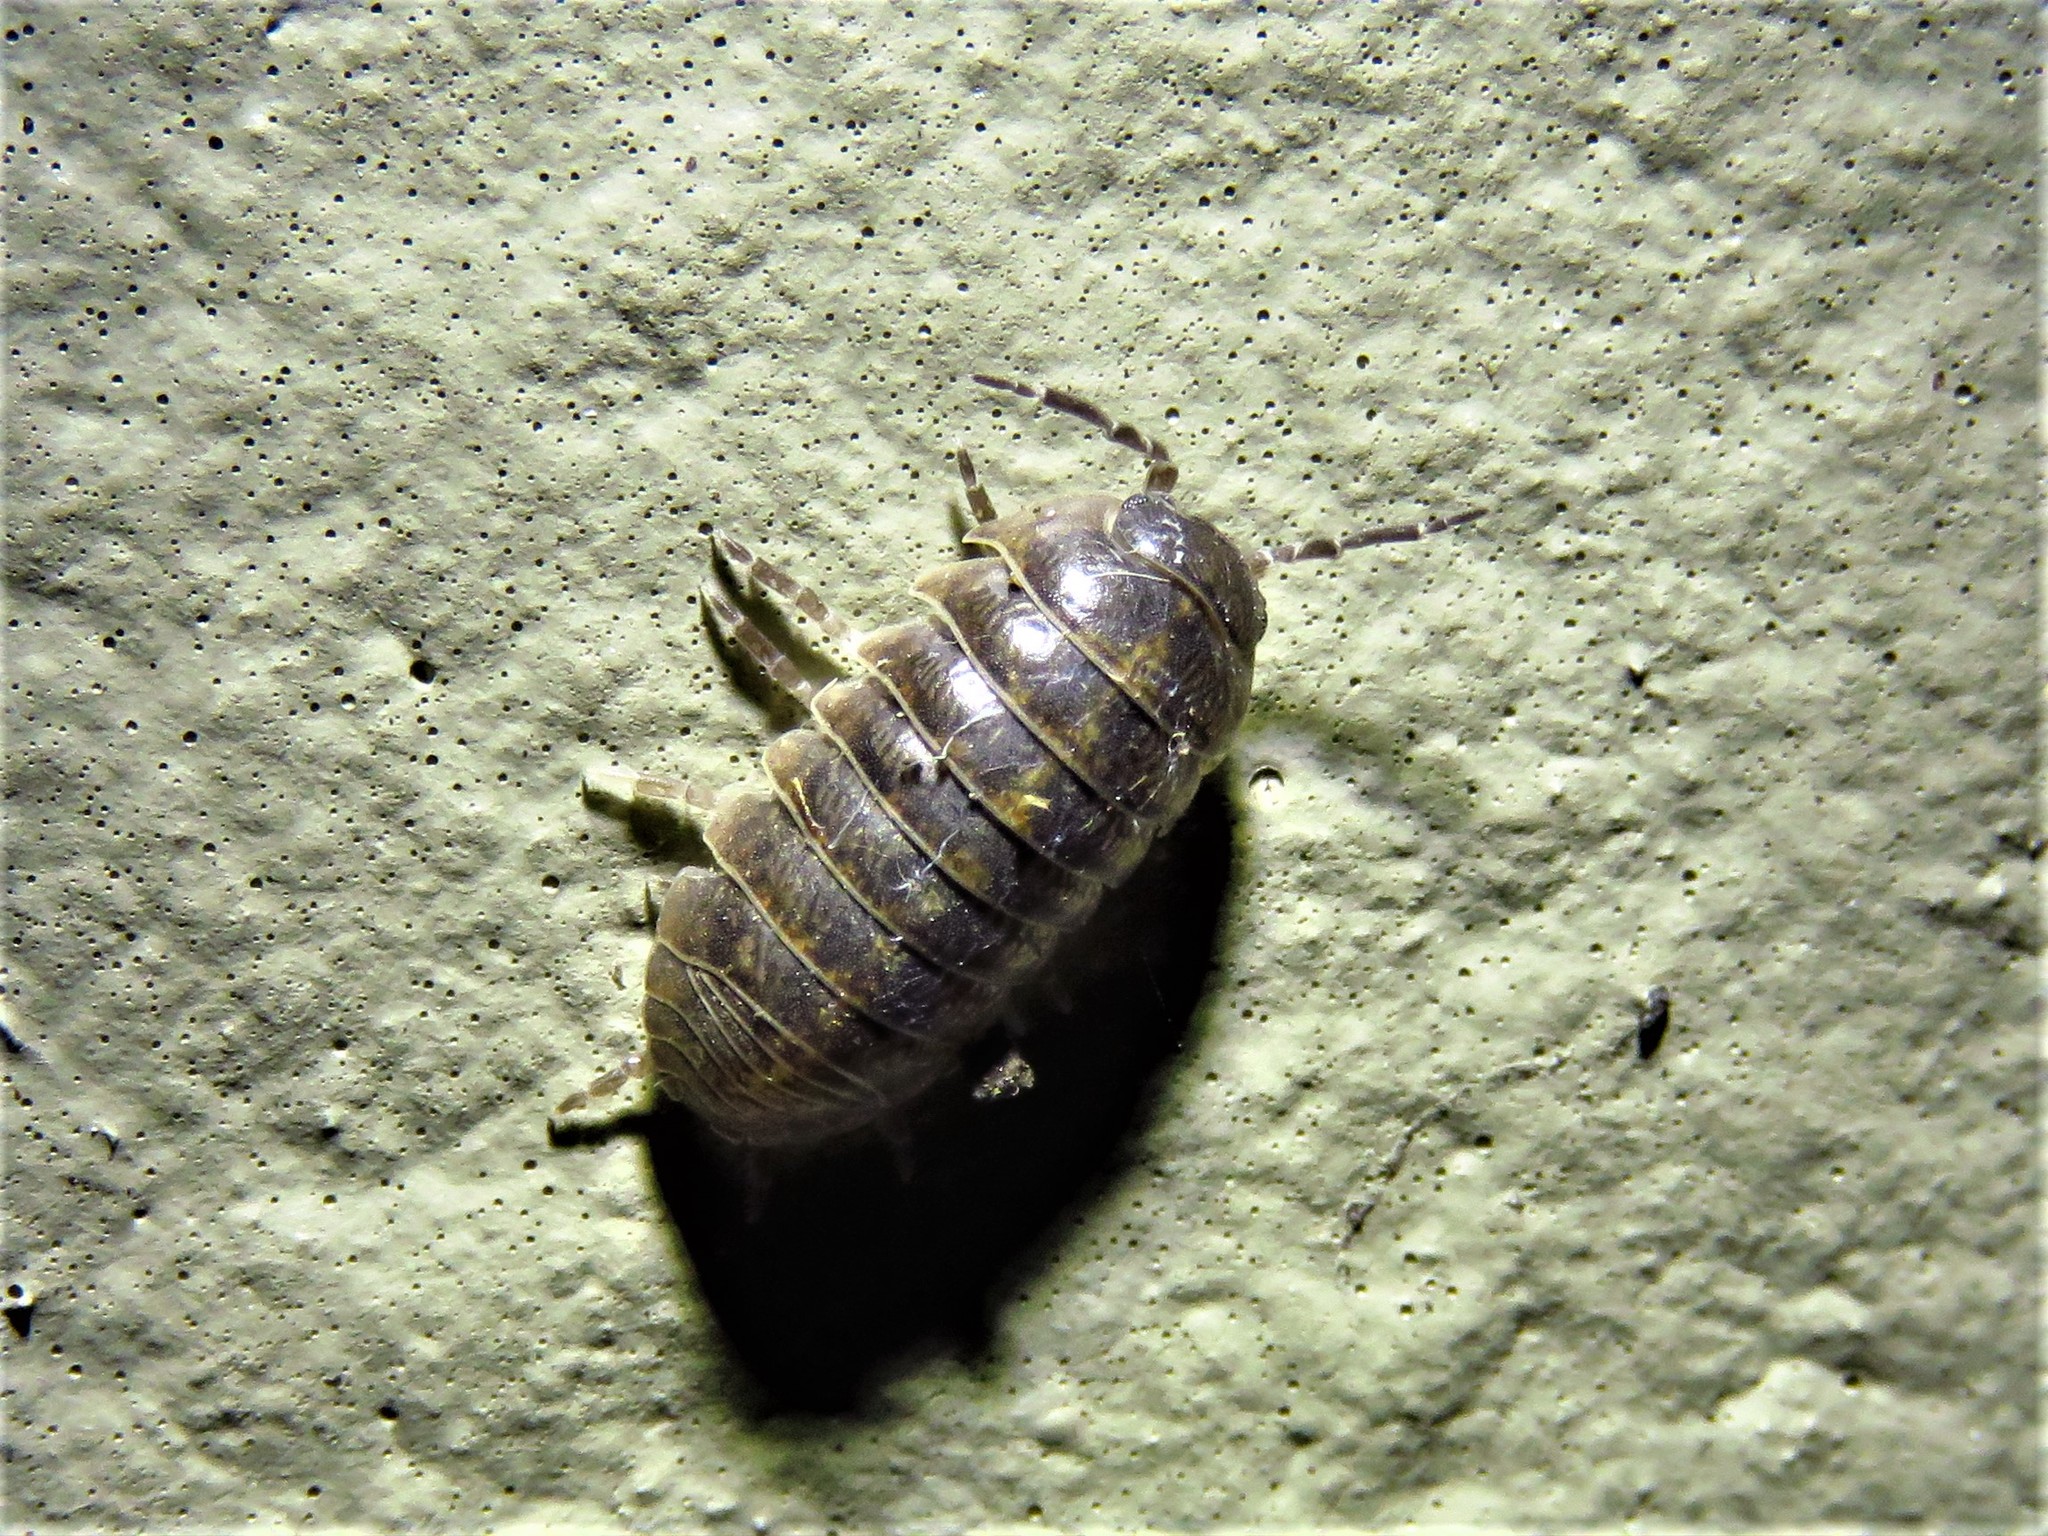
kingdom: Animalia
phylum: Arthropoda
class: Malacostraca
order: Isopoda
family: Armadillidiidae
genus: Armadillidium
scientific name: Armadillidium vulgare
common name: Common pill woodlouse
